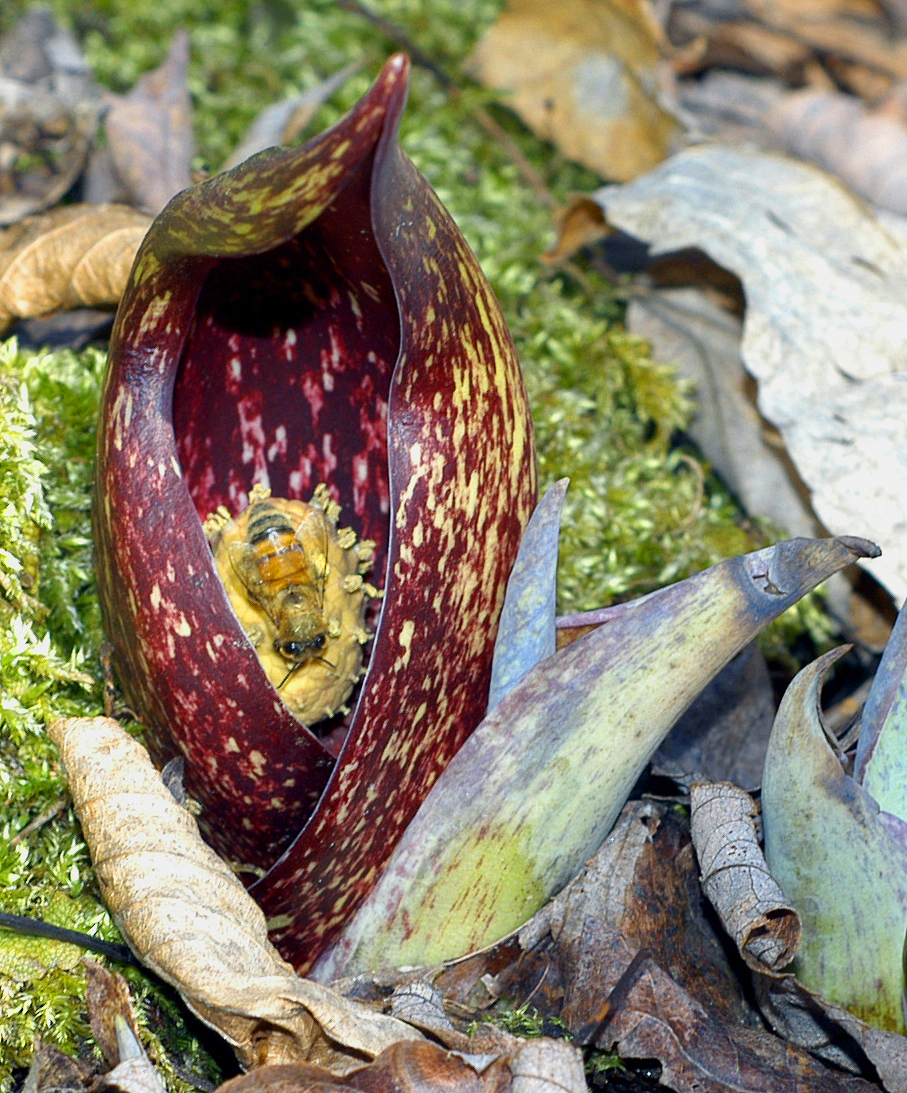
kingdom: Plantae
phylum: Tracheophyta
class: Liliopsida
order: Alismatales
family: Araceae
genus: Symplocarpus
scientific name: Symplocarpus foetidus
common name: Eastern skunk cabbage
